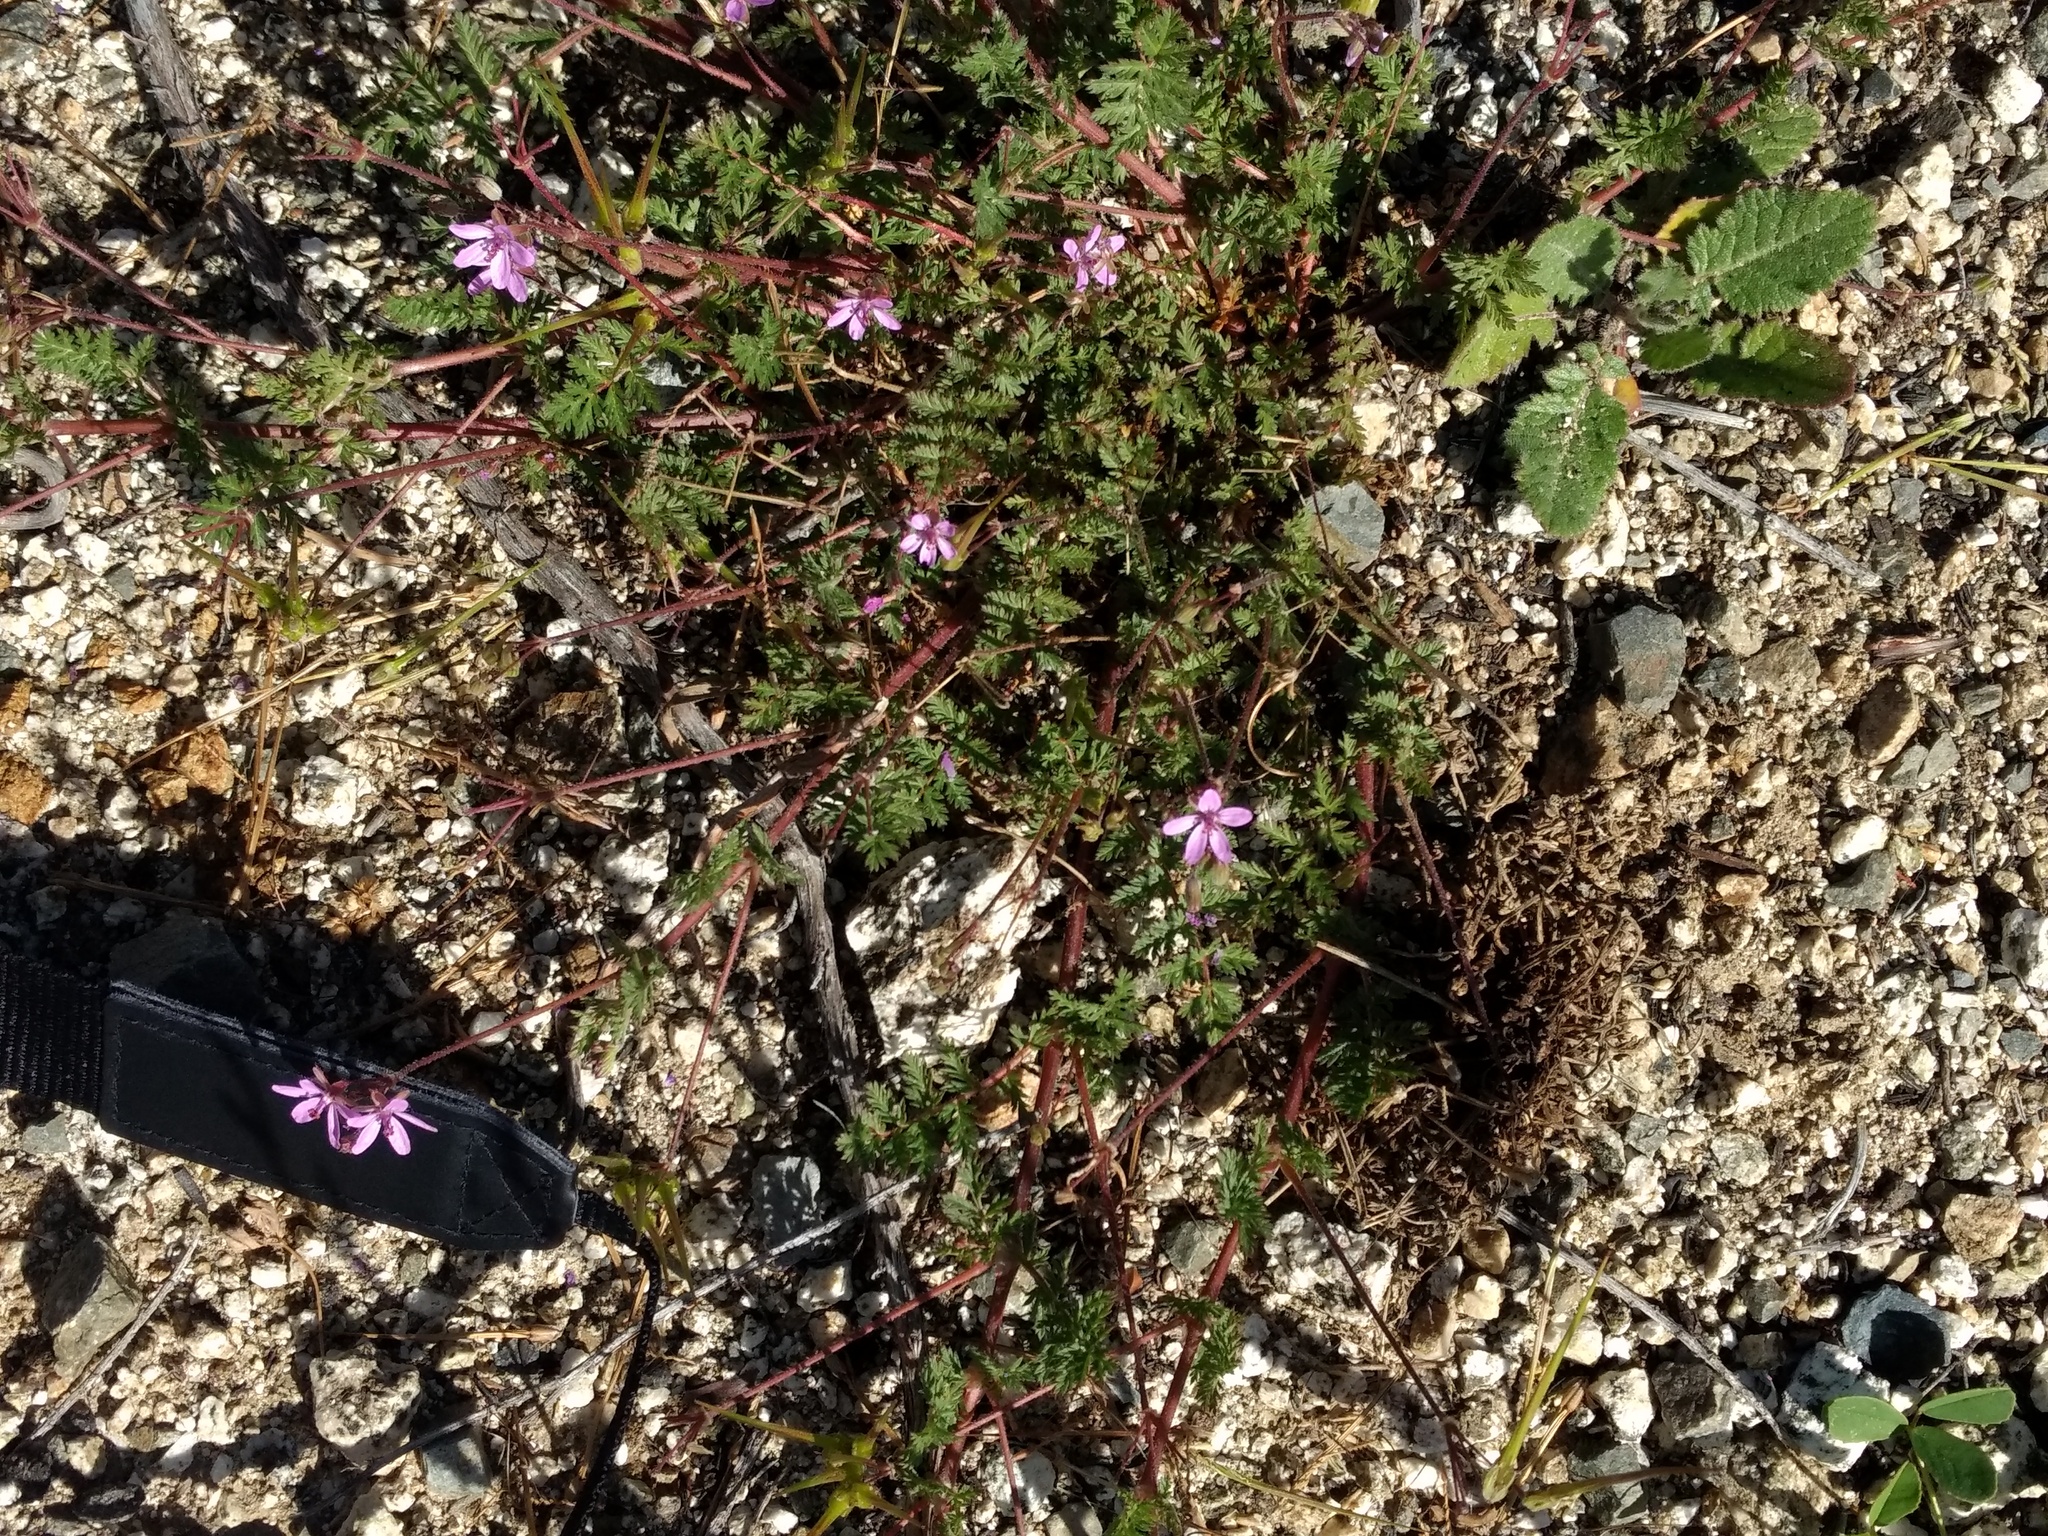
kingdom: Plantae
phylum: Tracheophyta
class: Magnoliopsida
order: Geraniales
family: Geraniaceae
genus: Erodium
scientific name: Erodium cicutarium
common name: Common stork's-bill
